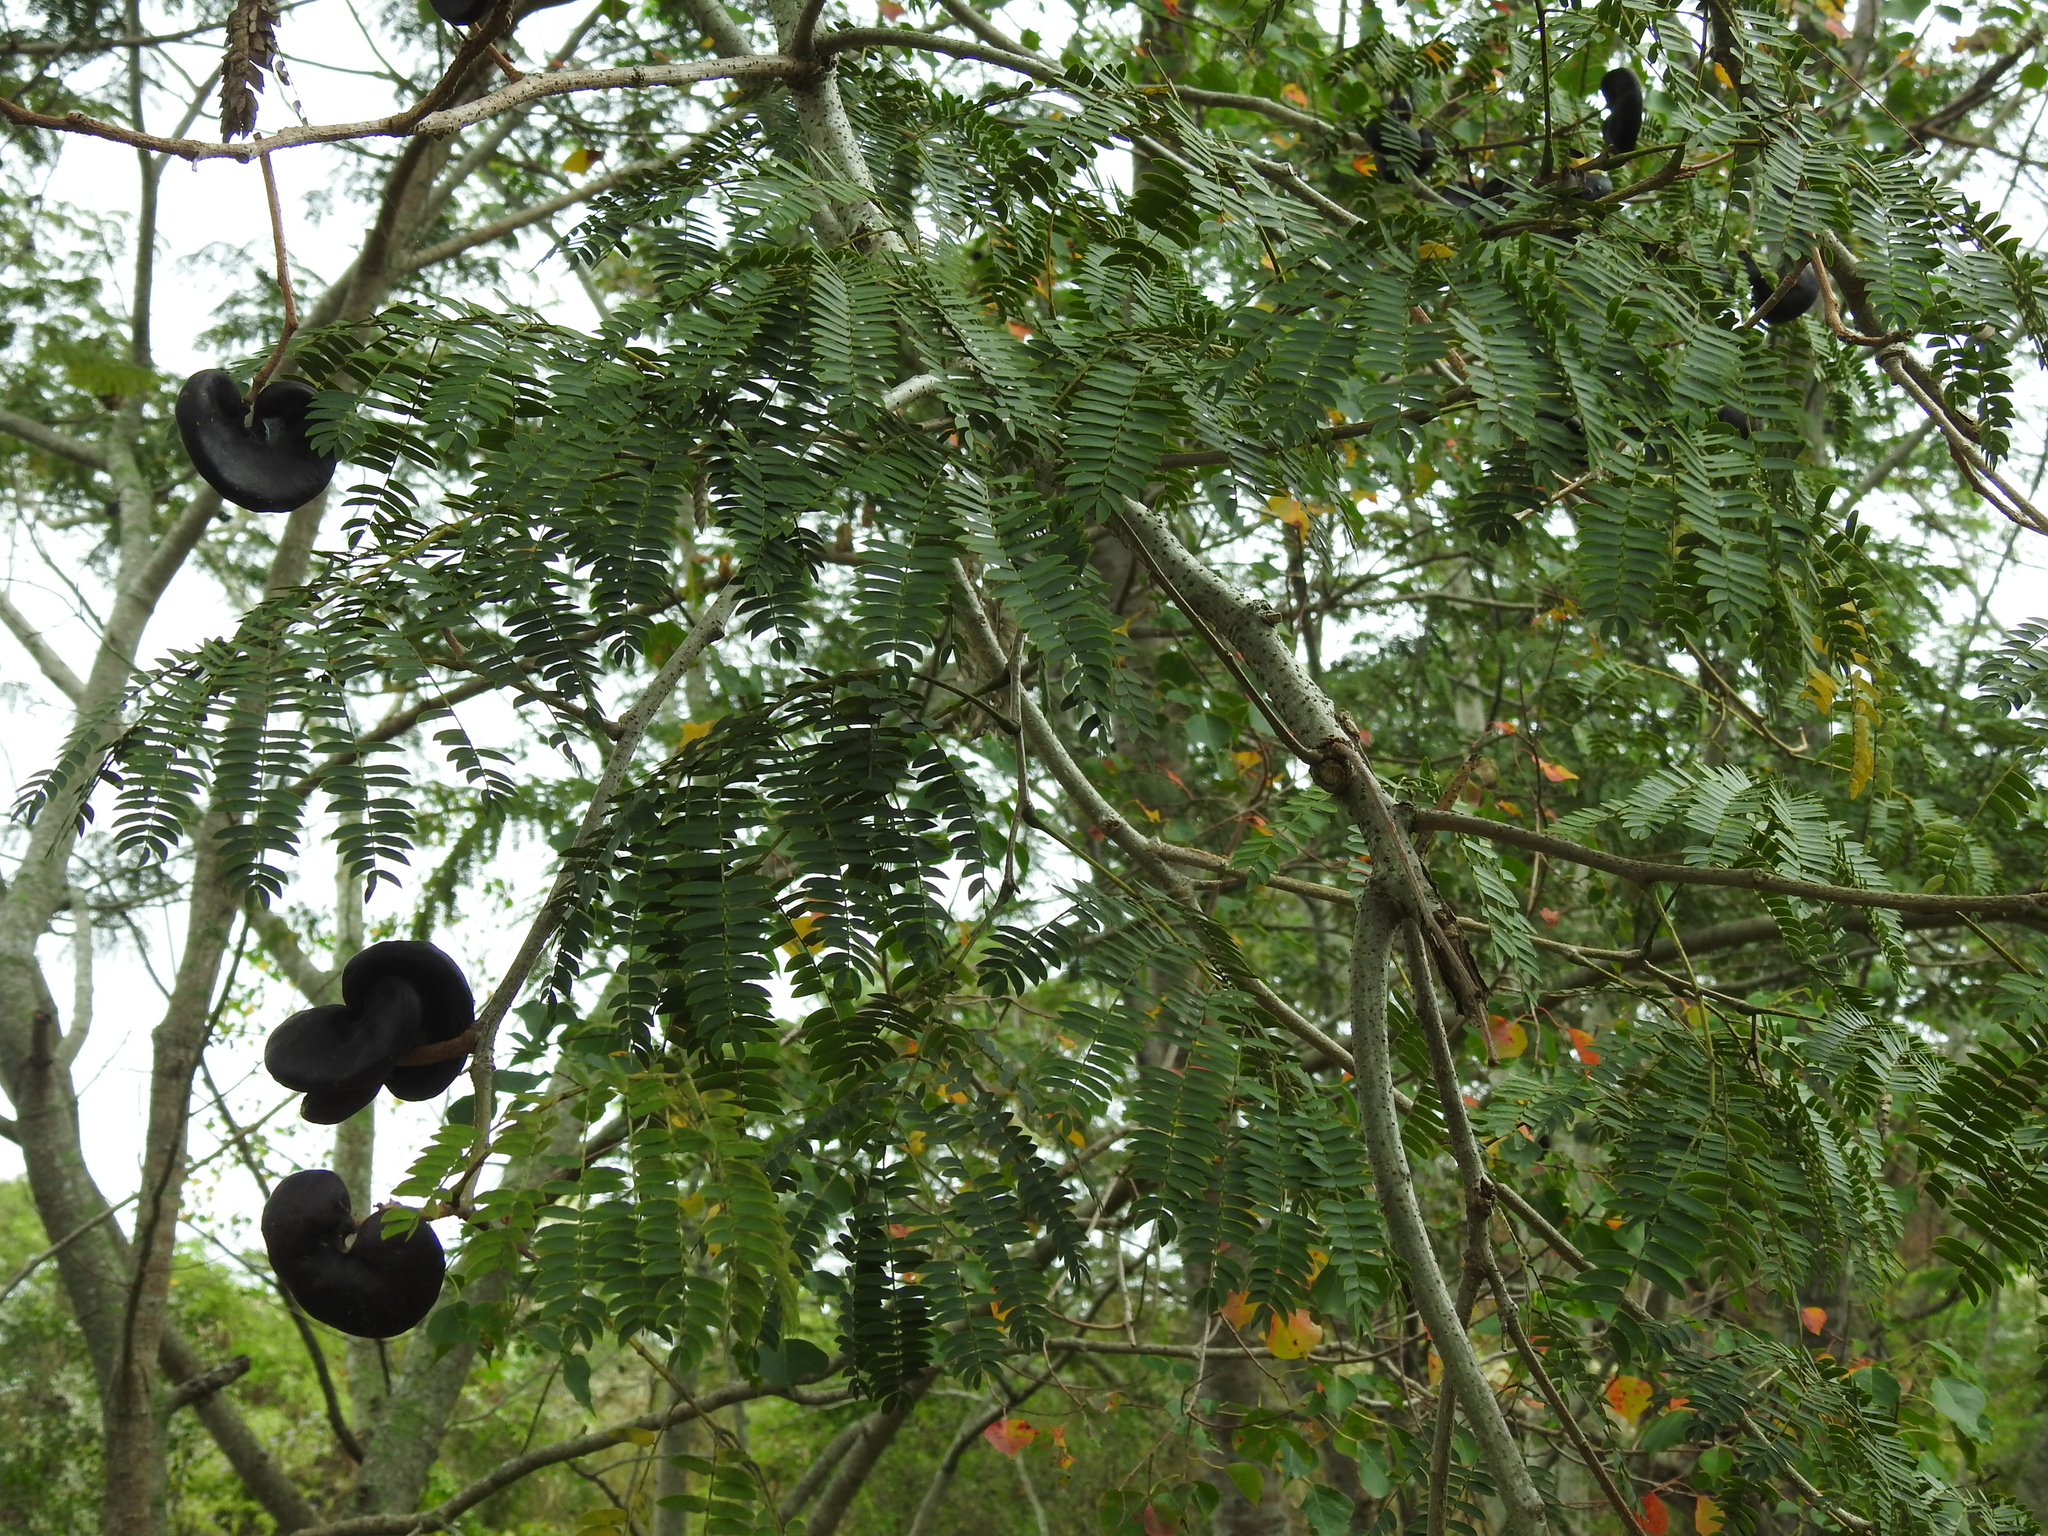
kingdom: Plantae
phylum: Tracheophyta
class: Magnoliopsida
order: Fabales
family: Fabaceae
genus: Enterolobium
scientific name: Enterolobium contortisiliquum
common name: Pacara earpod tree
